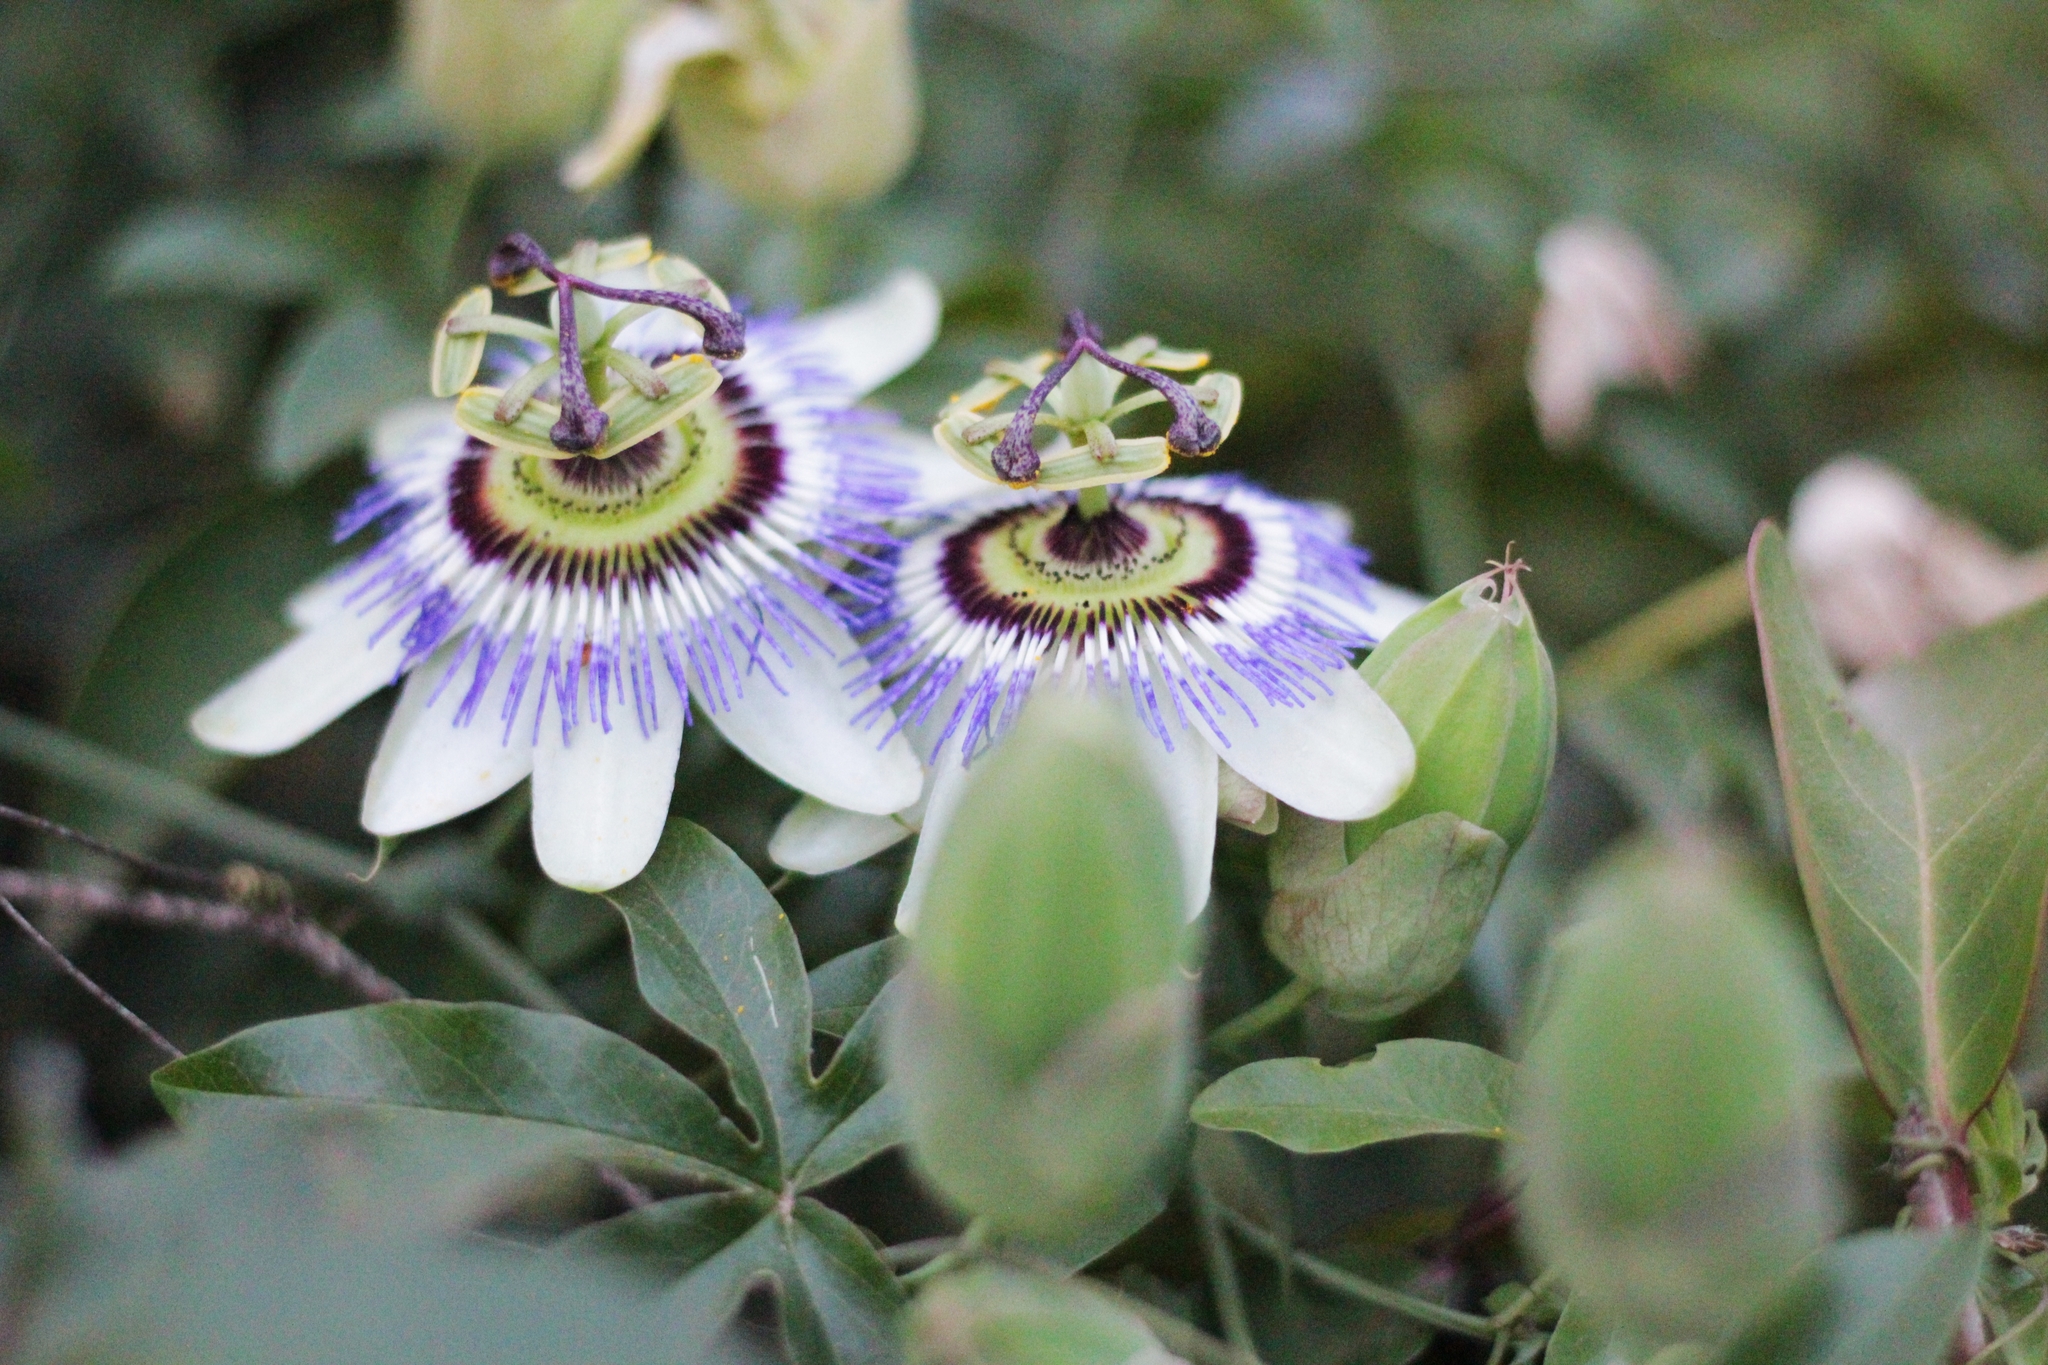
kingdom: Plantae
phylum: Tracheophyta
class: Magnoliopsida
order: Malpighiales
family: Passifloraceae
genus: Passiflora
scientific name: Passiflora caerulea
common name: Blue passionflower
